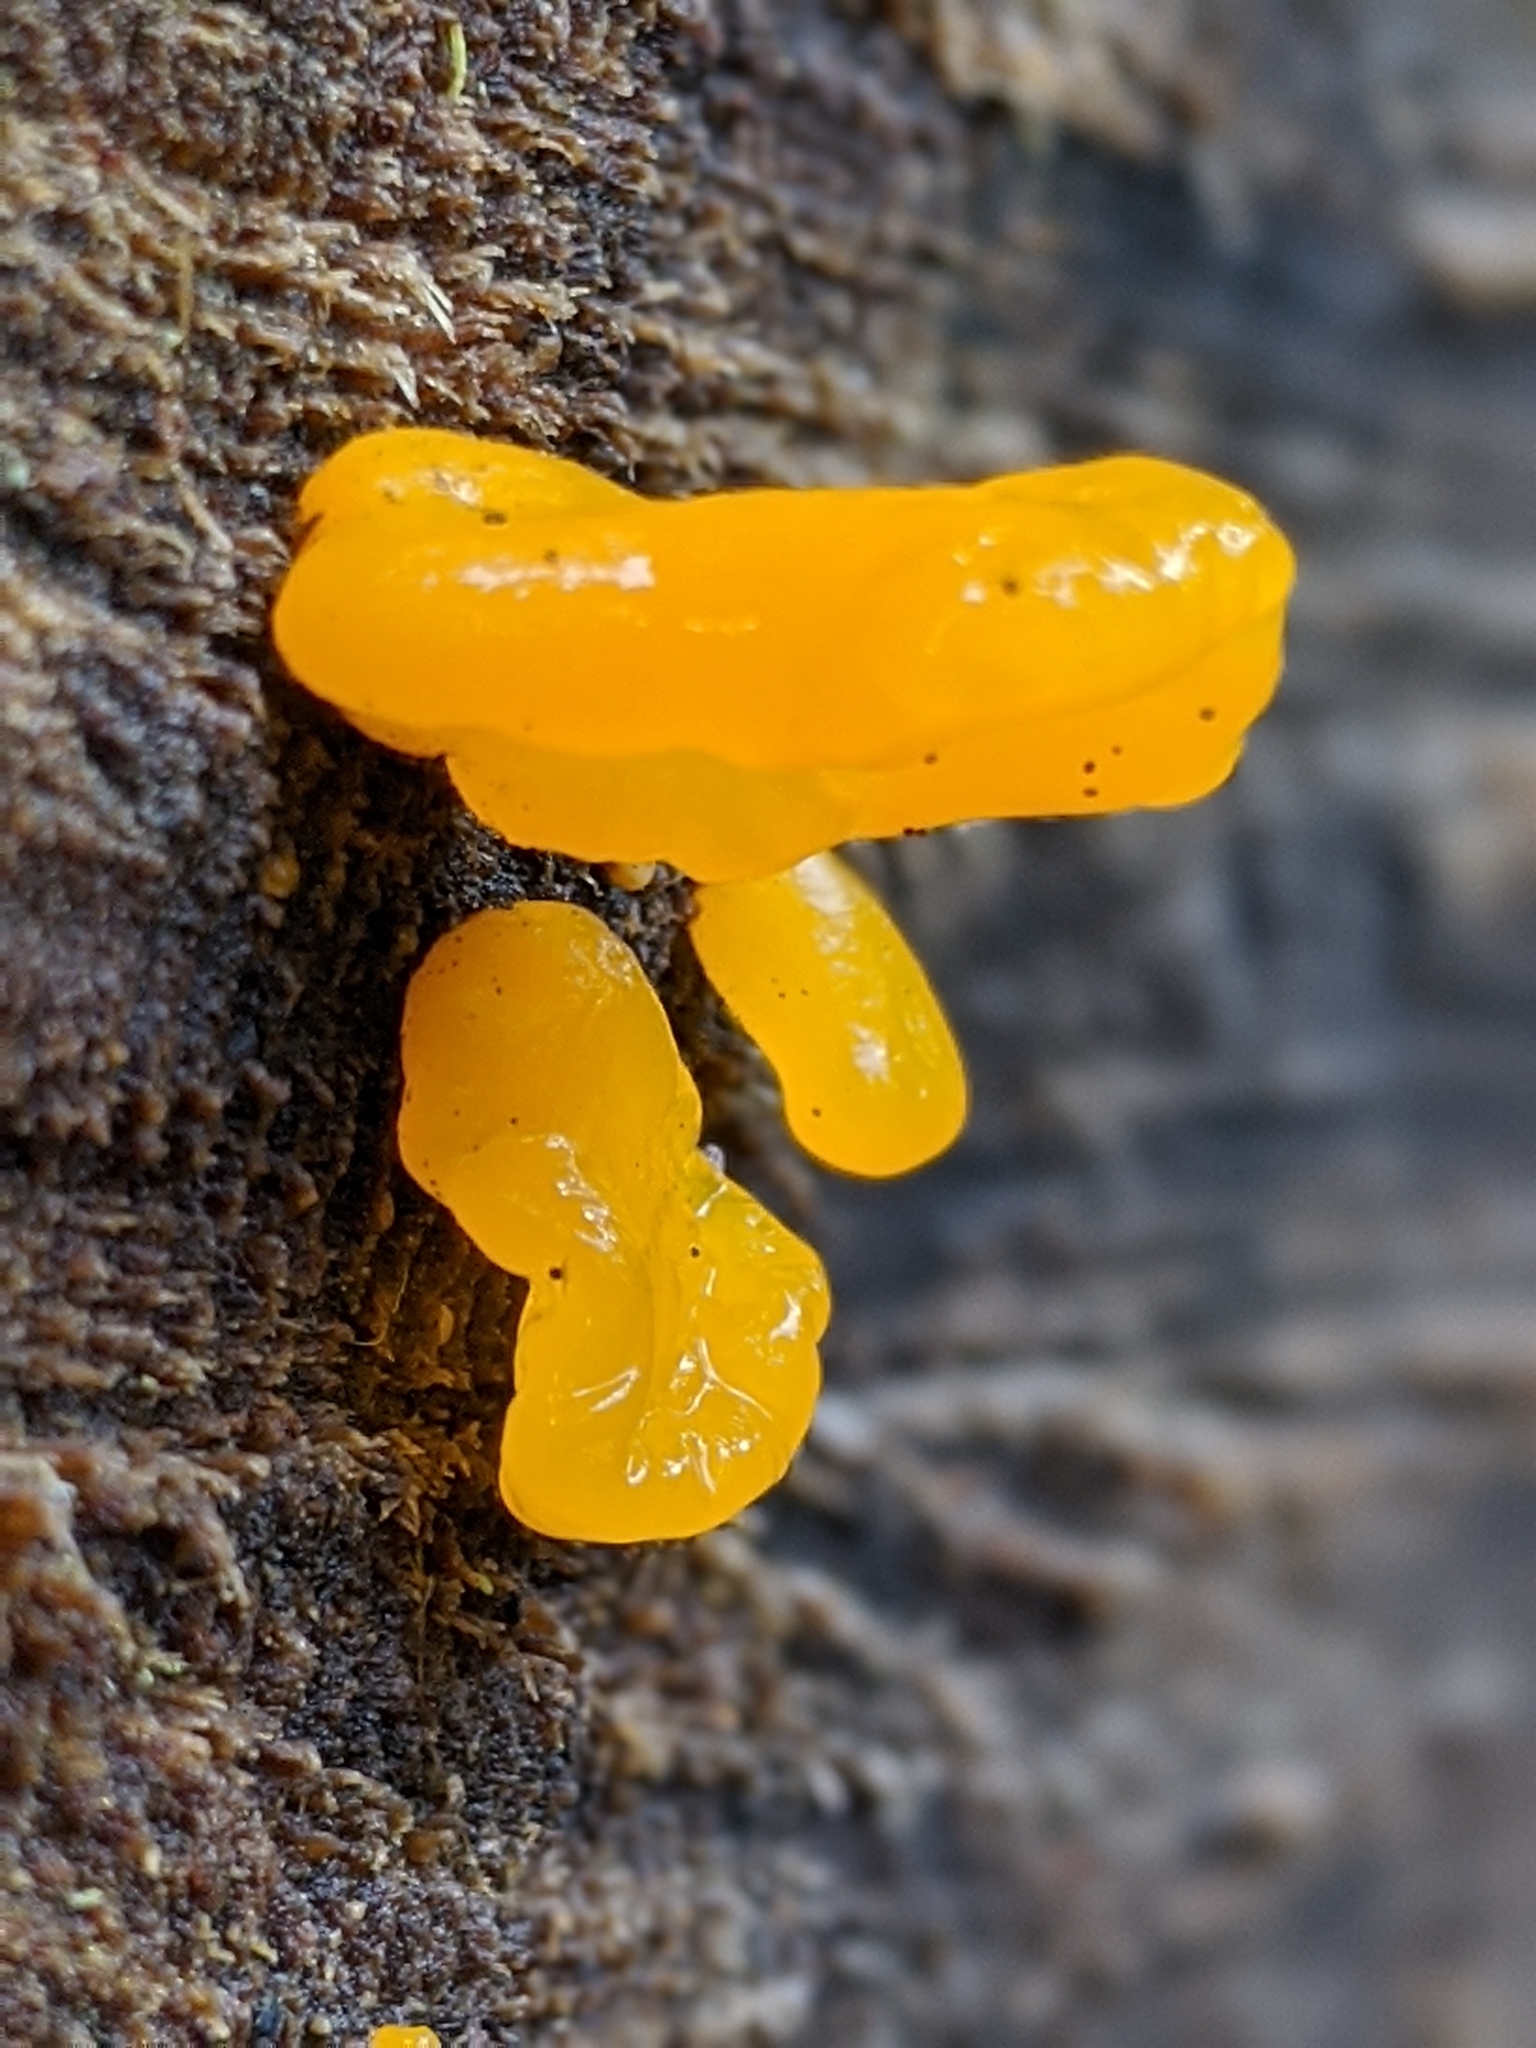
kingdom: Fungi
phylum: Basidiomycota
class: Dacrymycetes
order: Dacrymycetales
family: Dacrymycetaceae
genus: Dacrymyces
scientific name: Dacrymyces chrysospermus
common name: Orange jelly spot
